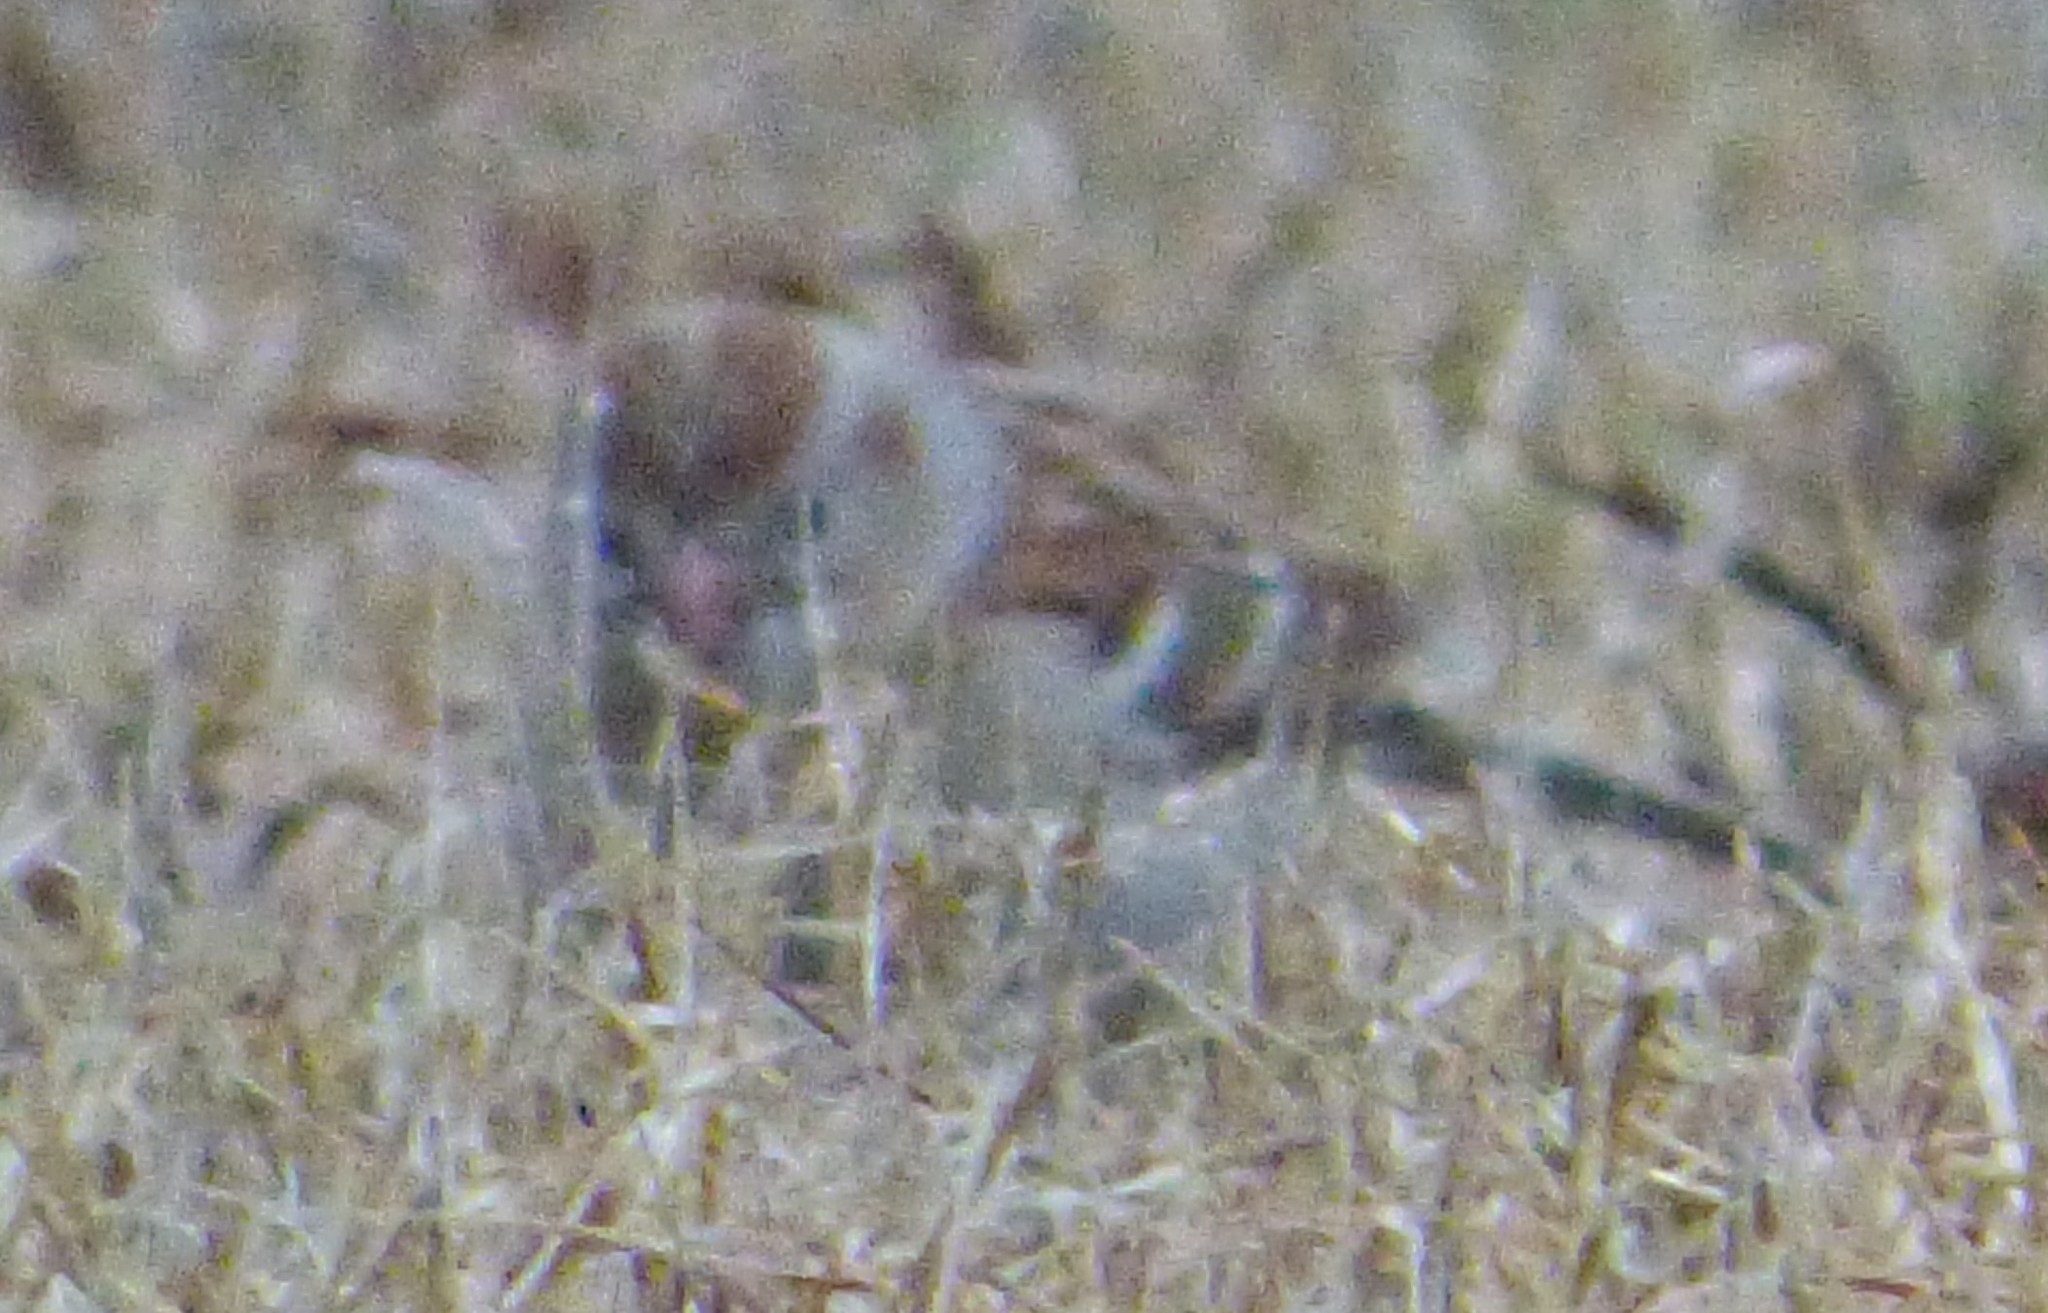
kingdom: Animalia
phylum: Chordata
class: Aves
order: Passeriformes
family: Passerellidae
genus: Spizella
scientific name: Spizella pusilla
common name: Field sparrow
